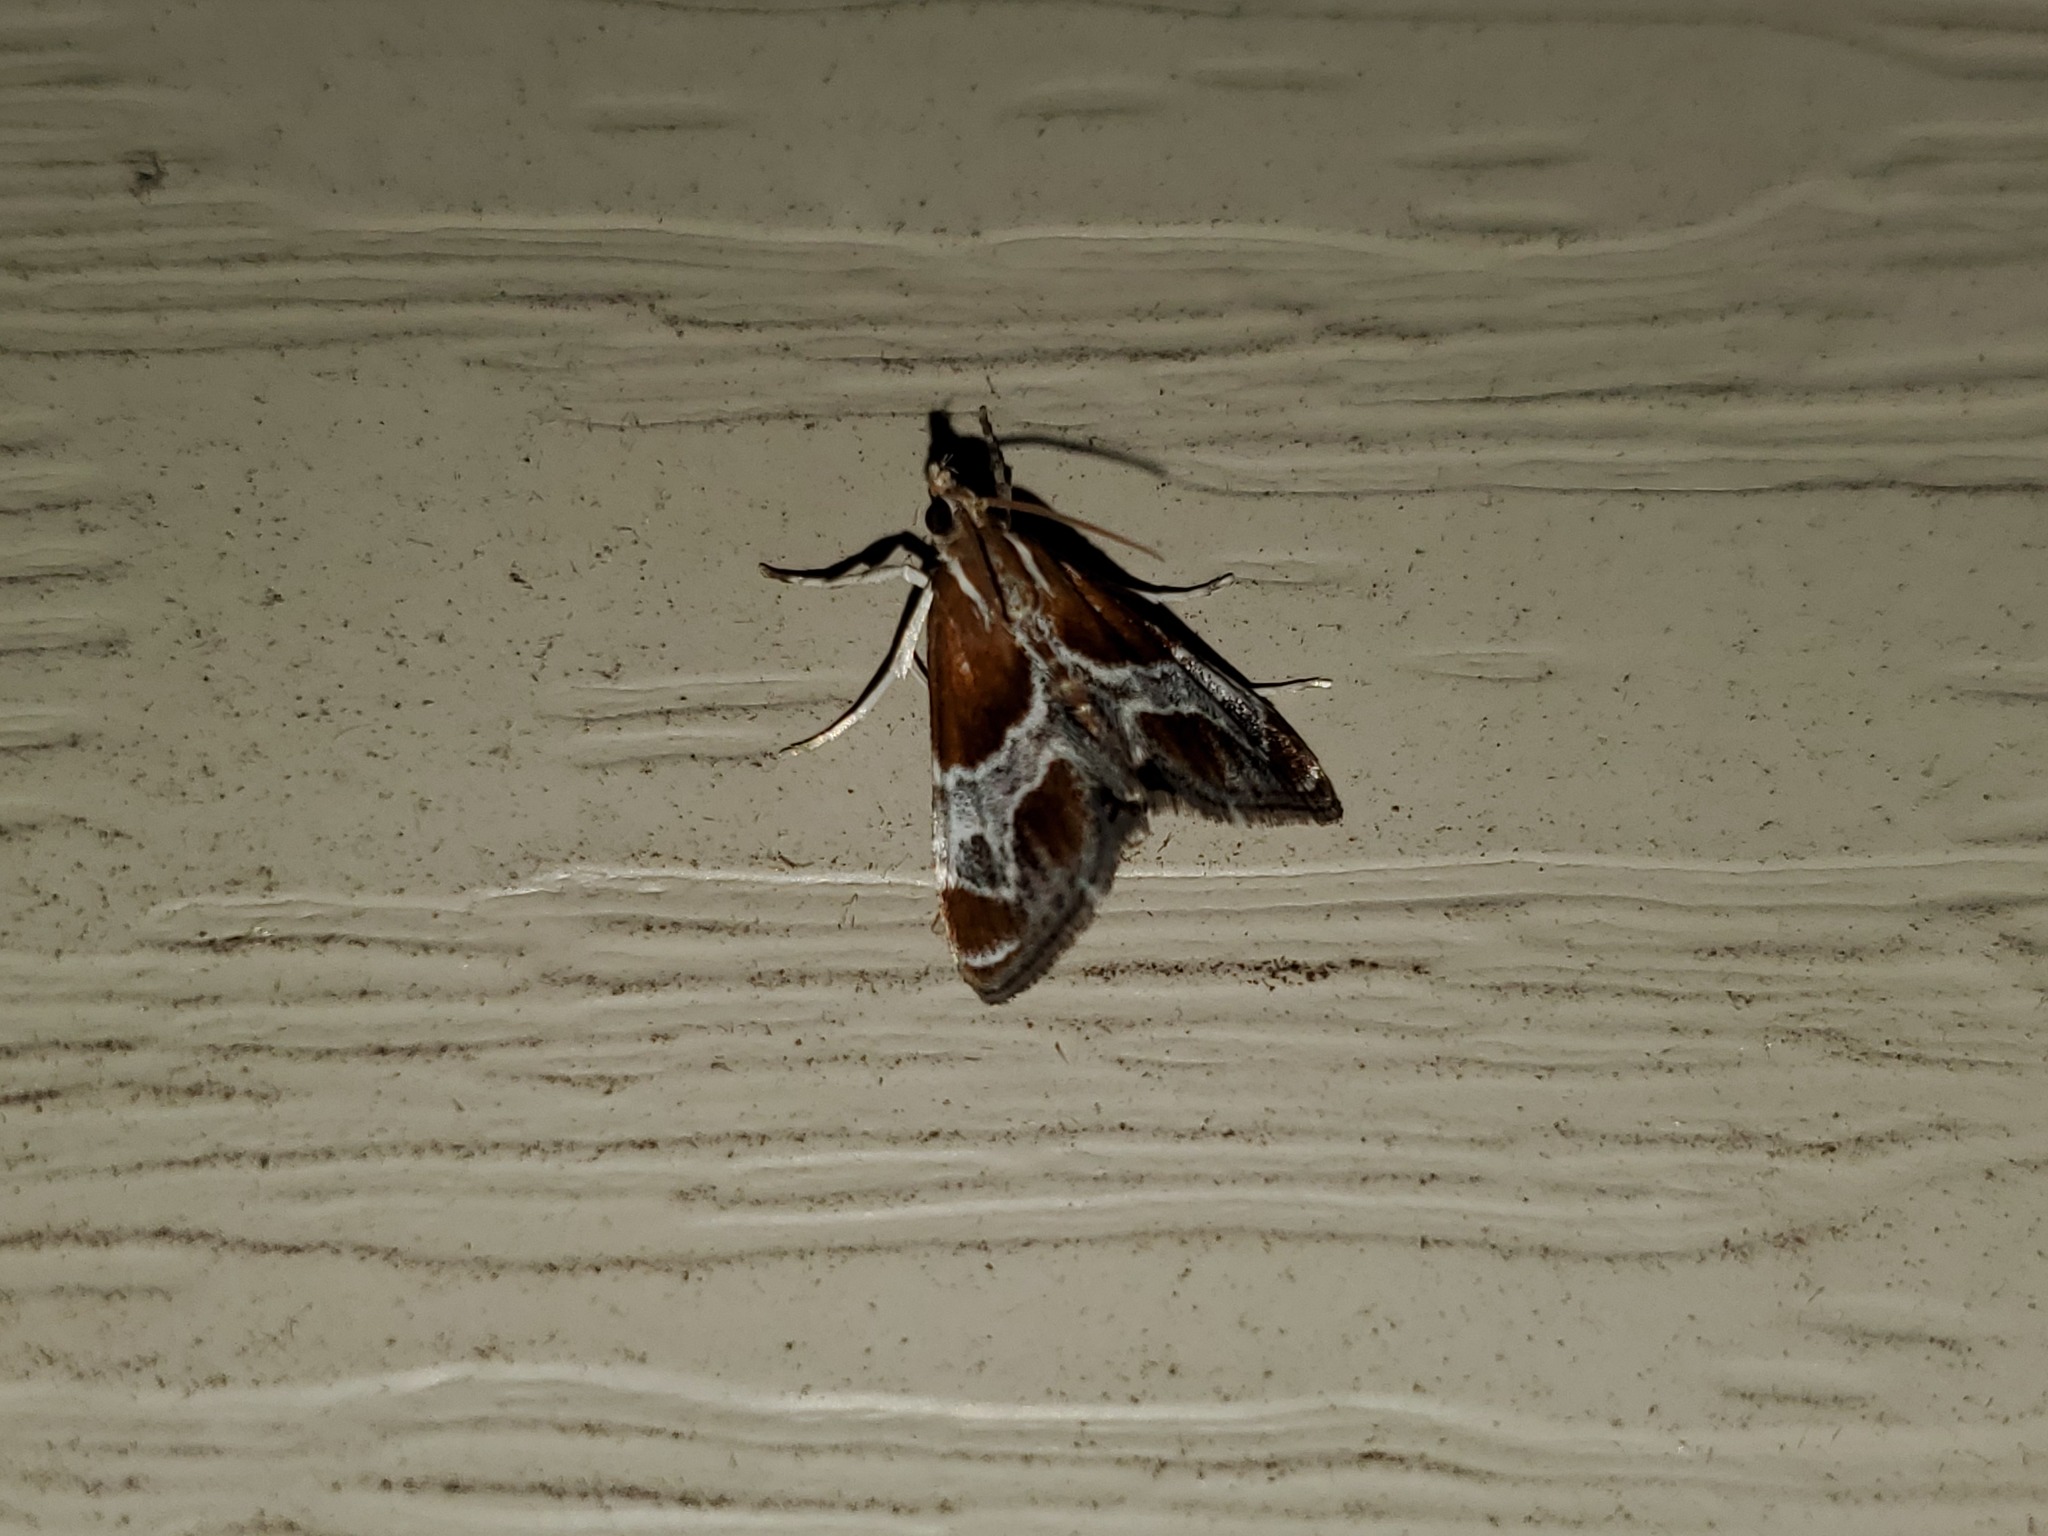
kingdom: Animalia
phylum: Arthropoda
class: Insecta
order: Lepidoptera
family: Crambidae
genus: Chalcoela
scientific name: Chalcoela pegasalis
